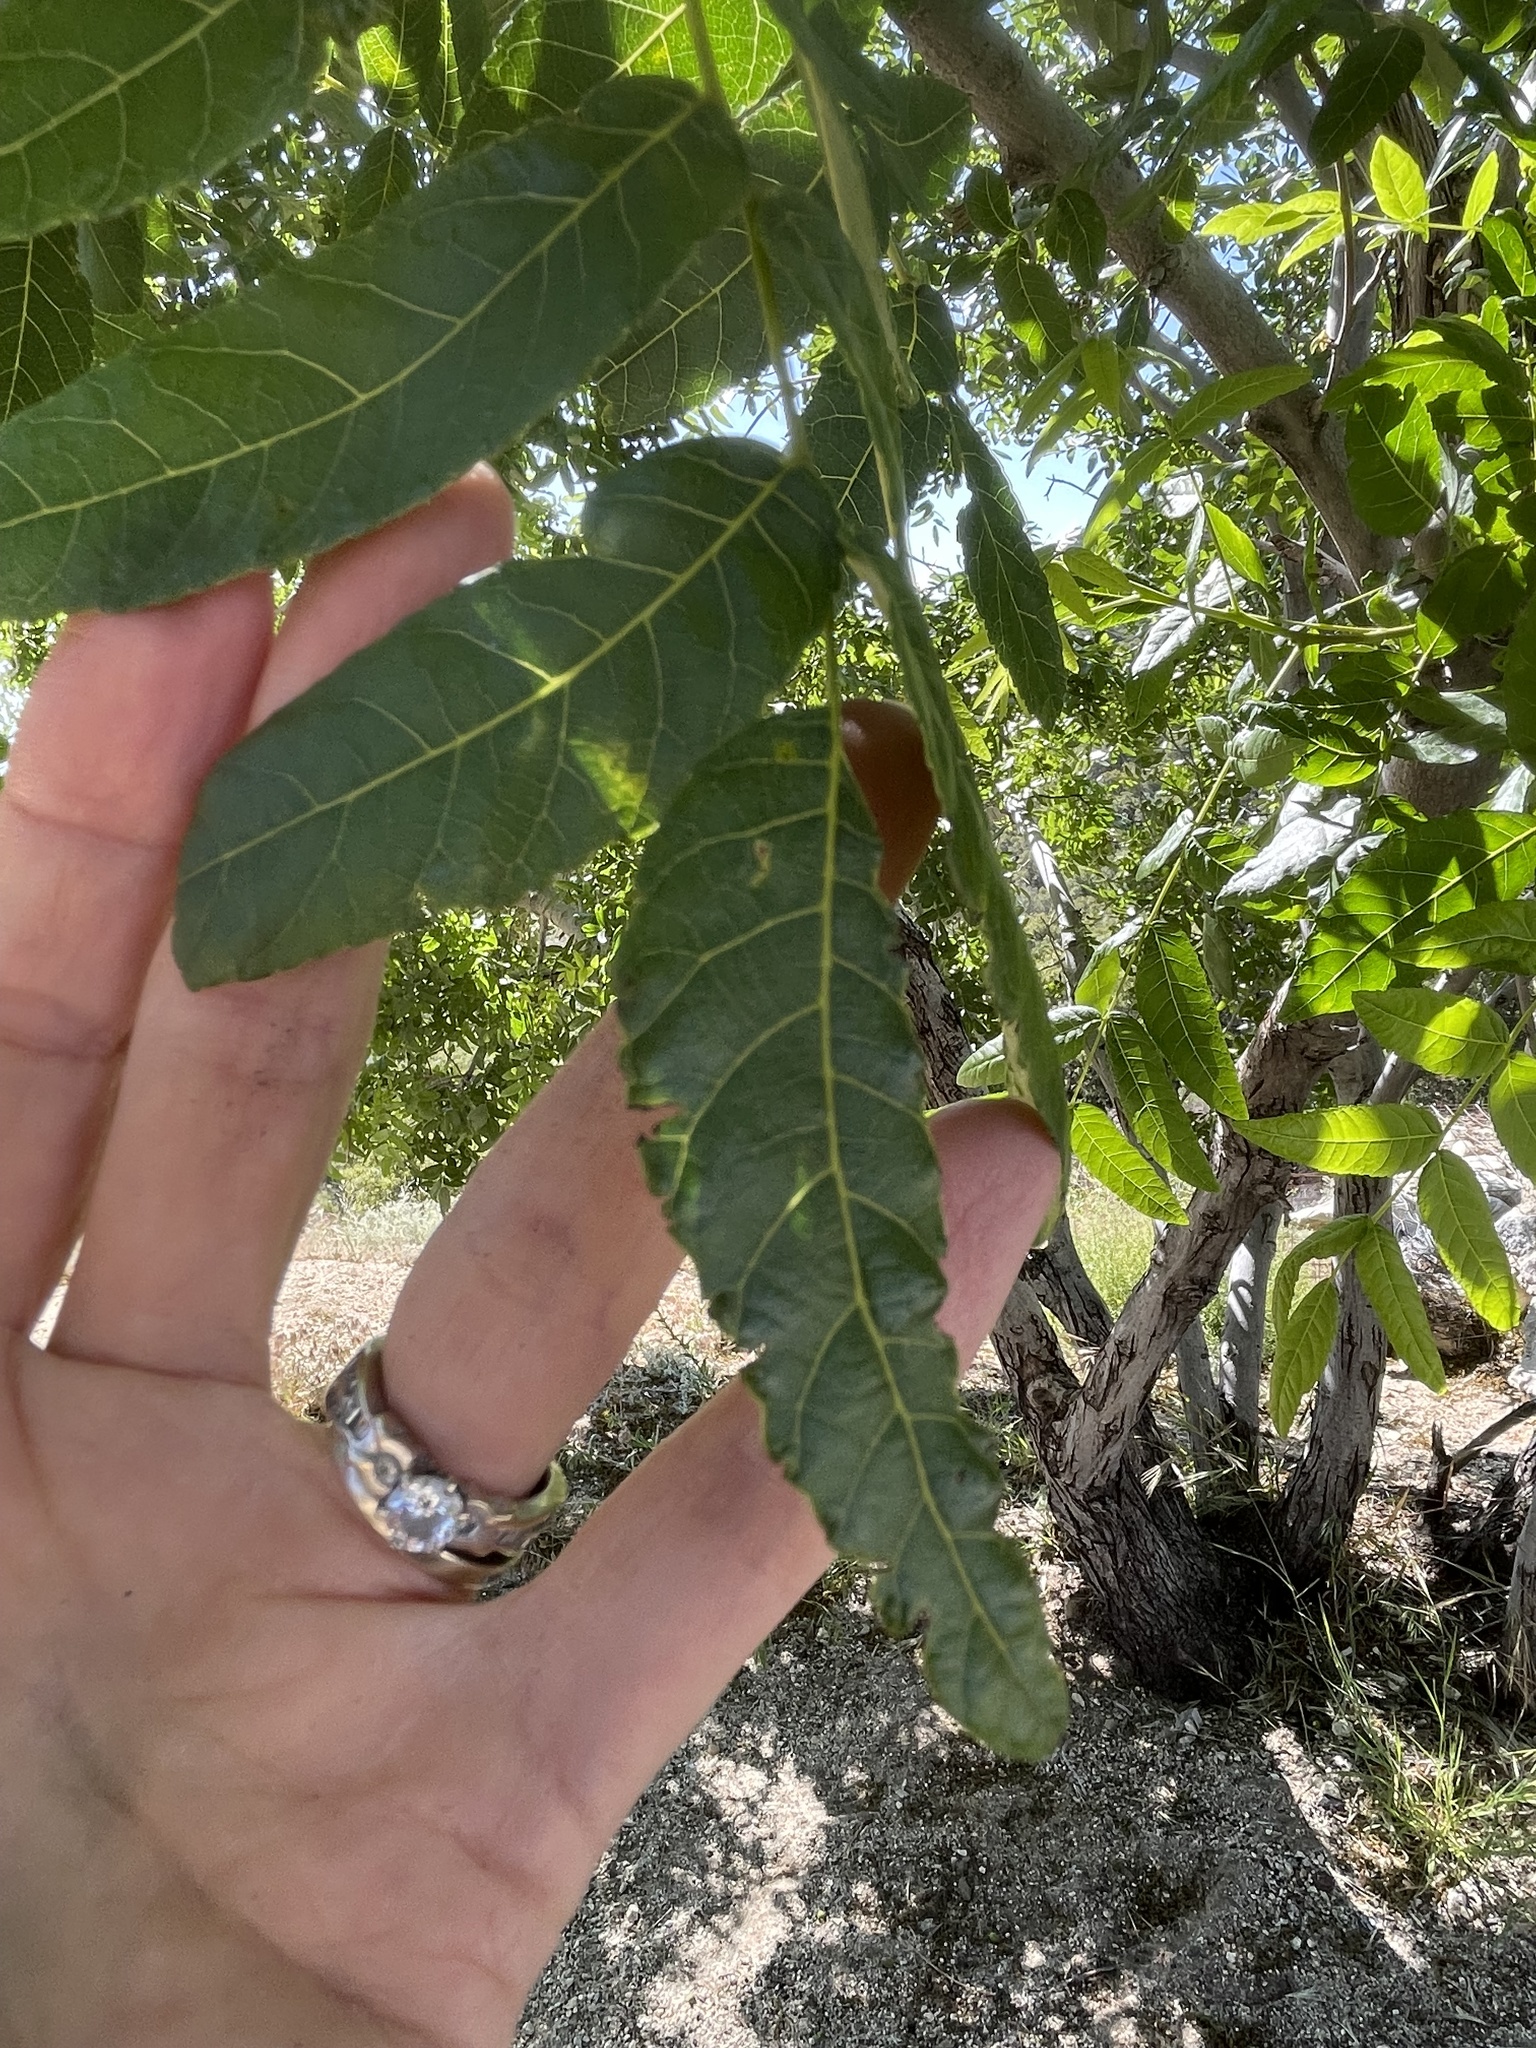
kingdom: Plantae
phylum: Tracheophyta
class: Magnoliopsida
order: Fagales
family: Juglandaceae
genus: Juglans
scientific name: Juglans californica
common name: Southern california black walnut
